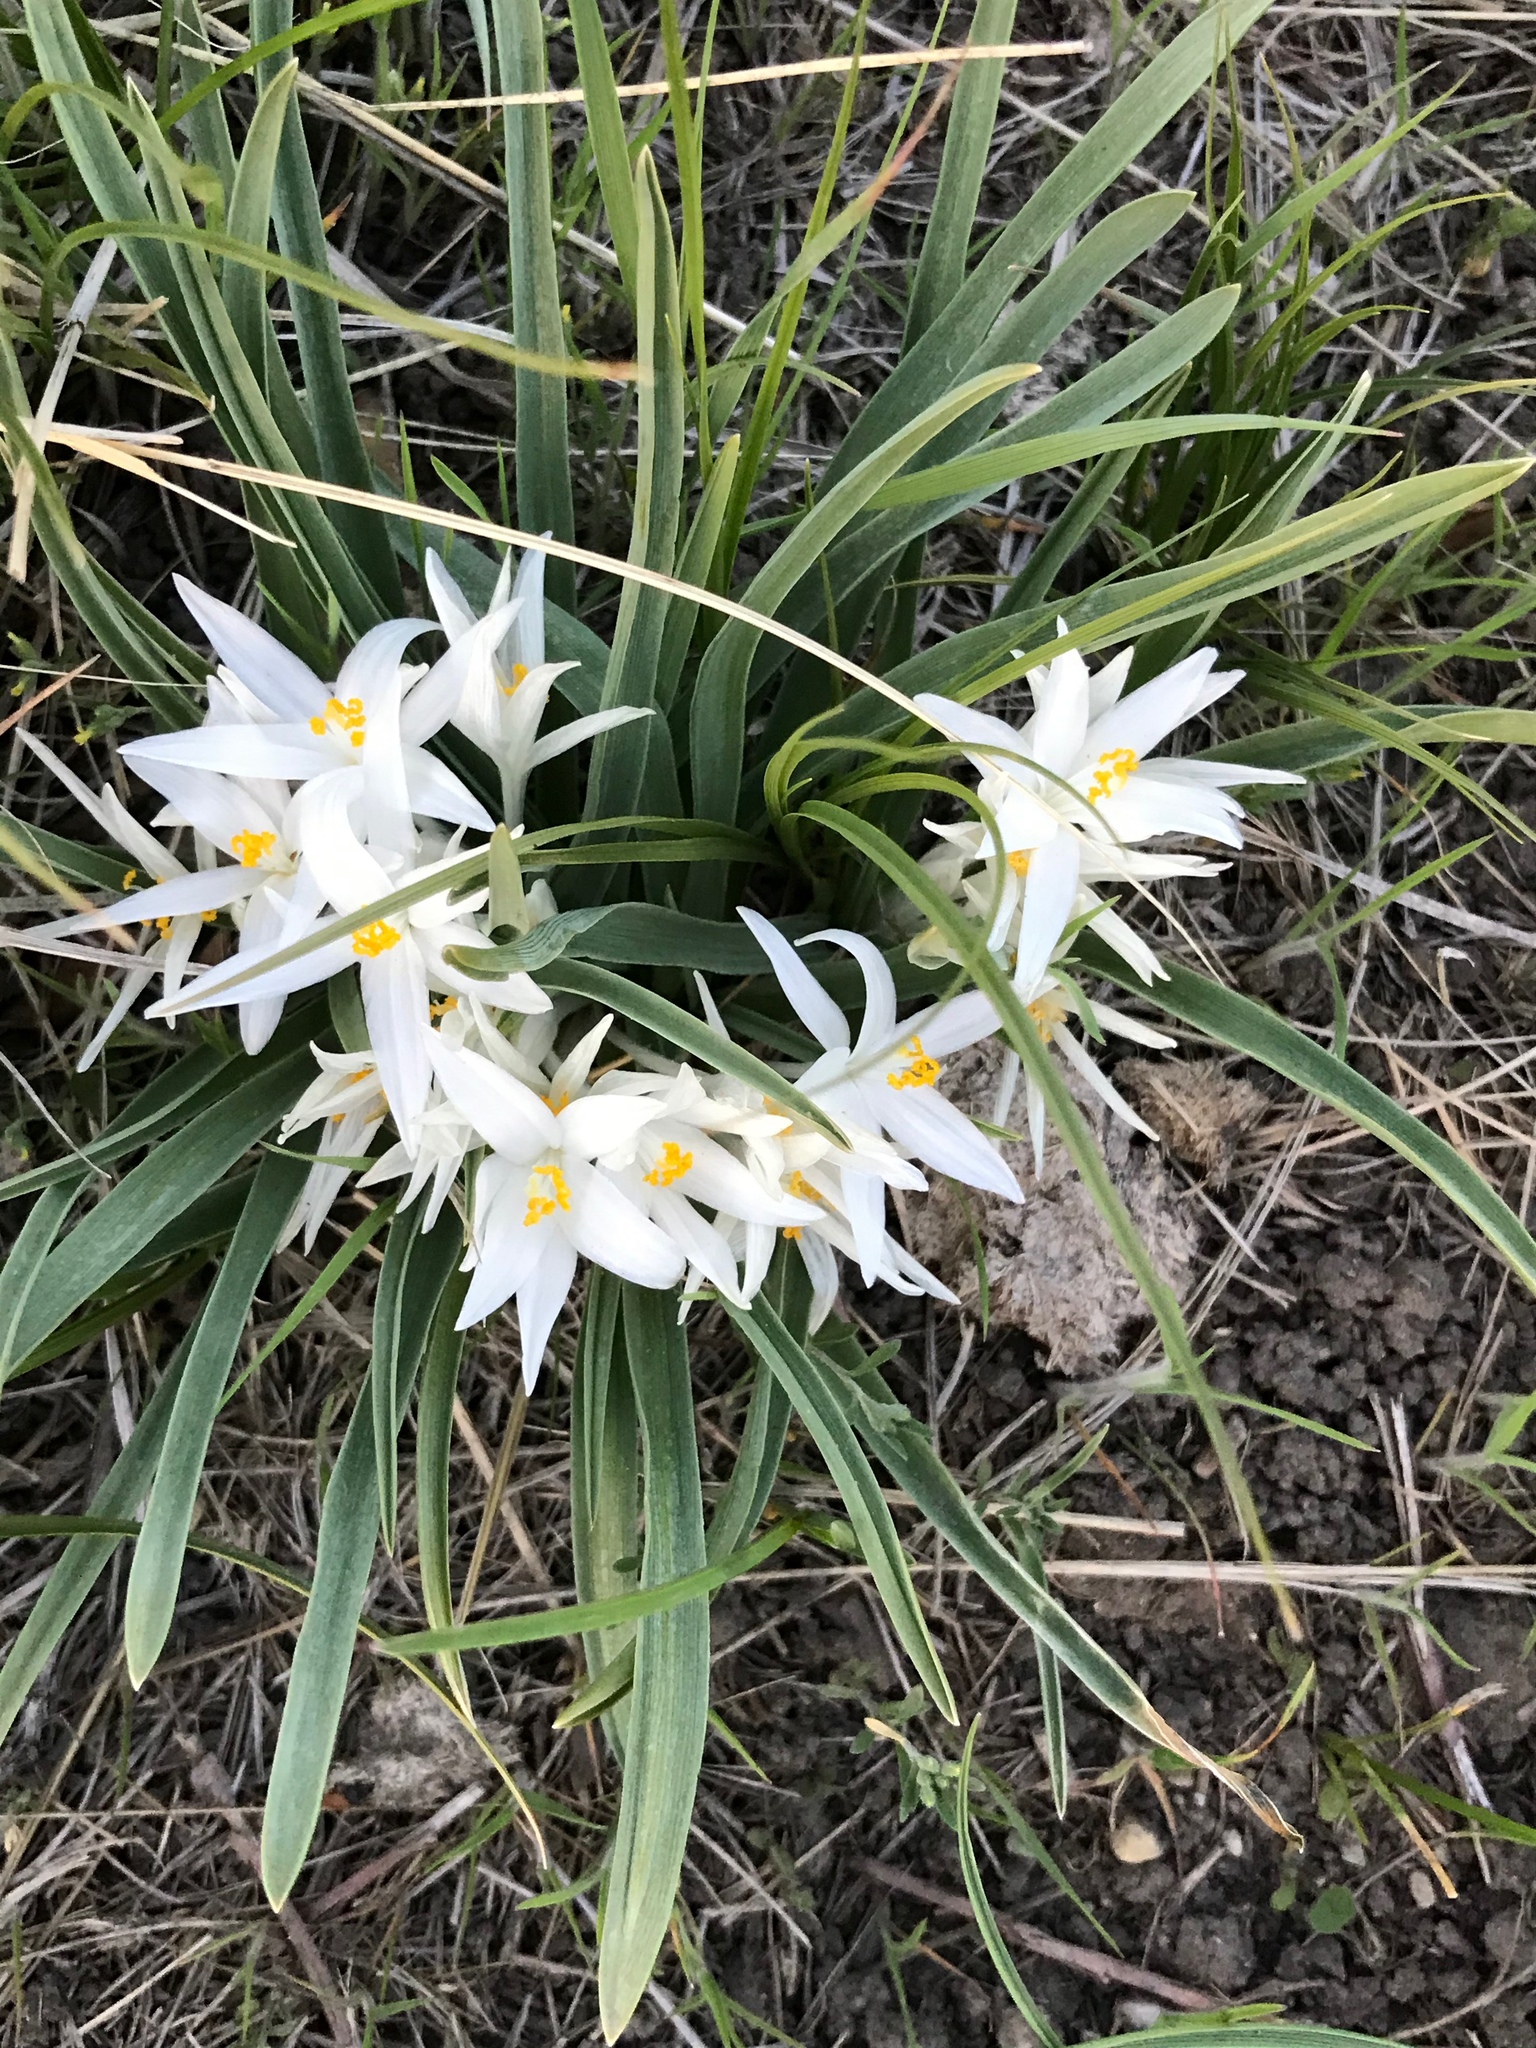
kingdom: Plantae
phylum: Tracheophyta
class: Liliopsida
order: Asparagales
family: Asparagaceae
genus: Leucocrinum
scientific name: Leucocrinum montanum
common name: Mountain-lily
